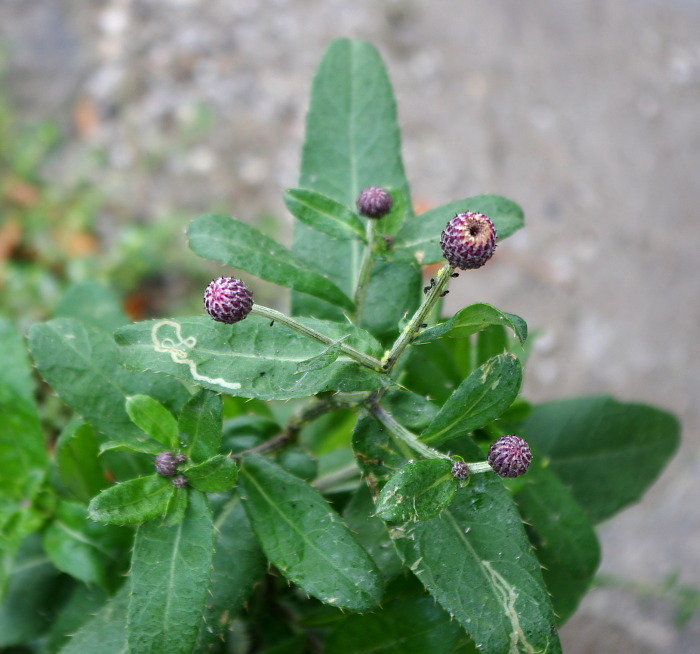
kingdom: Plantae
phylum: Tracheophyta
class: Magnoliopsida
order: Asterales
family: Asteraceae
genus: Cirsium
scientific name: Cirsium arvense
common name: Creeping thistle
